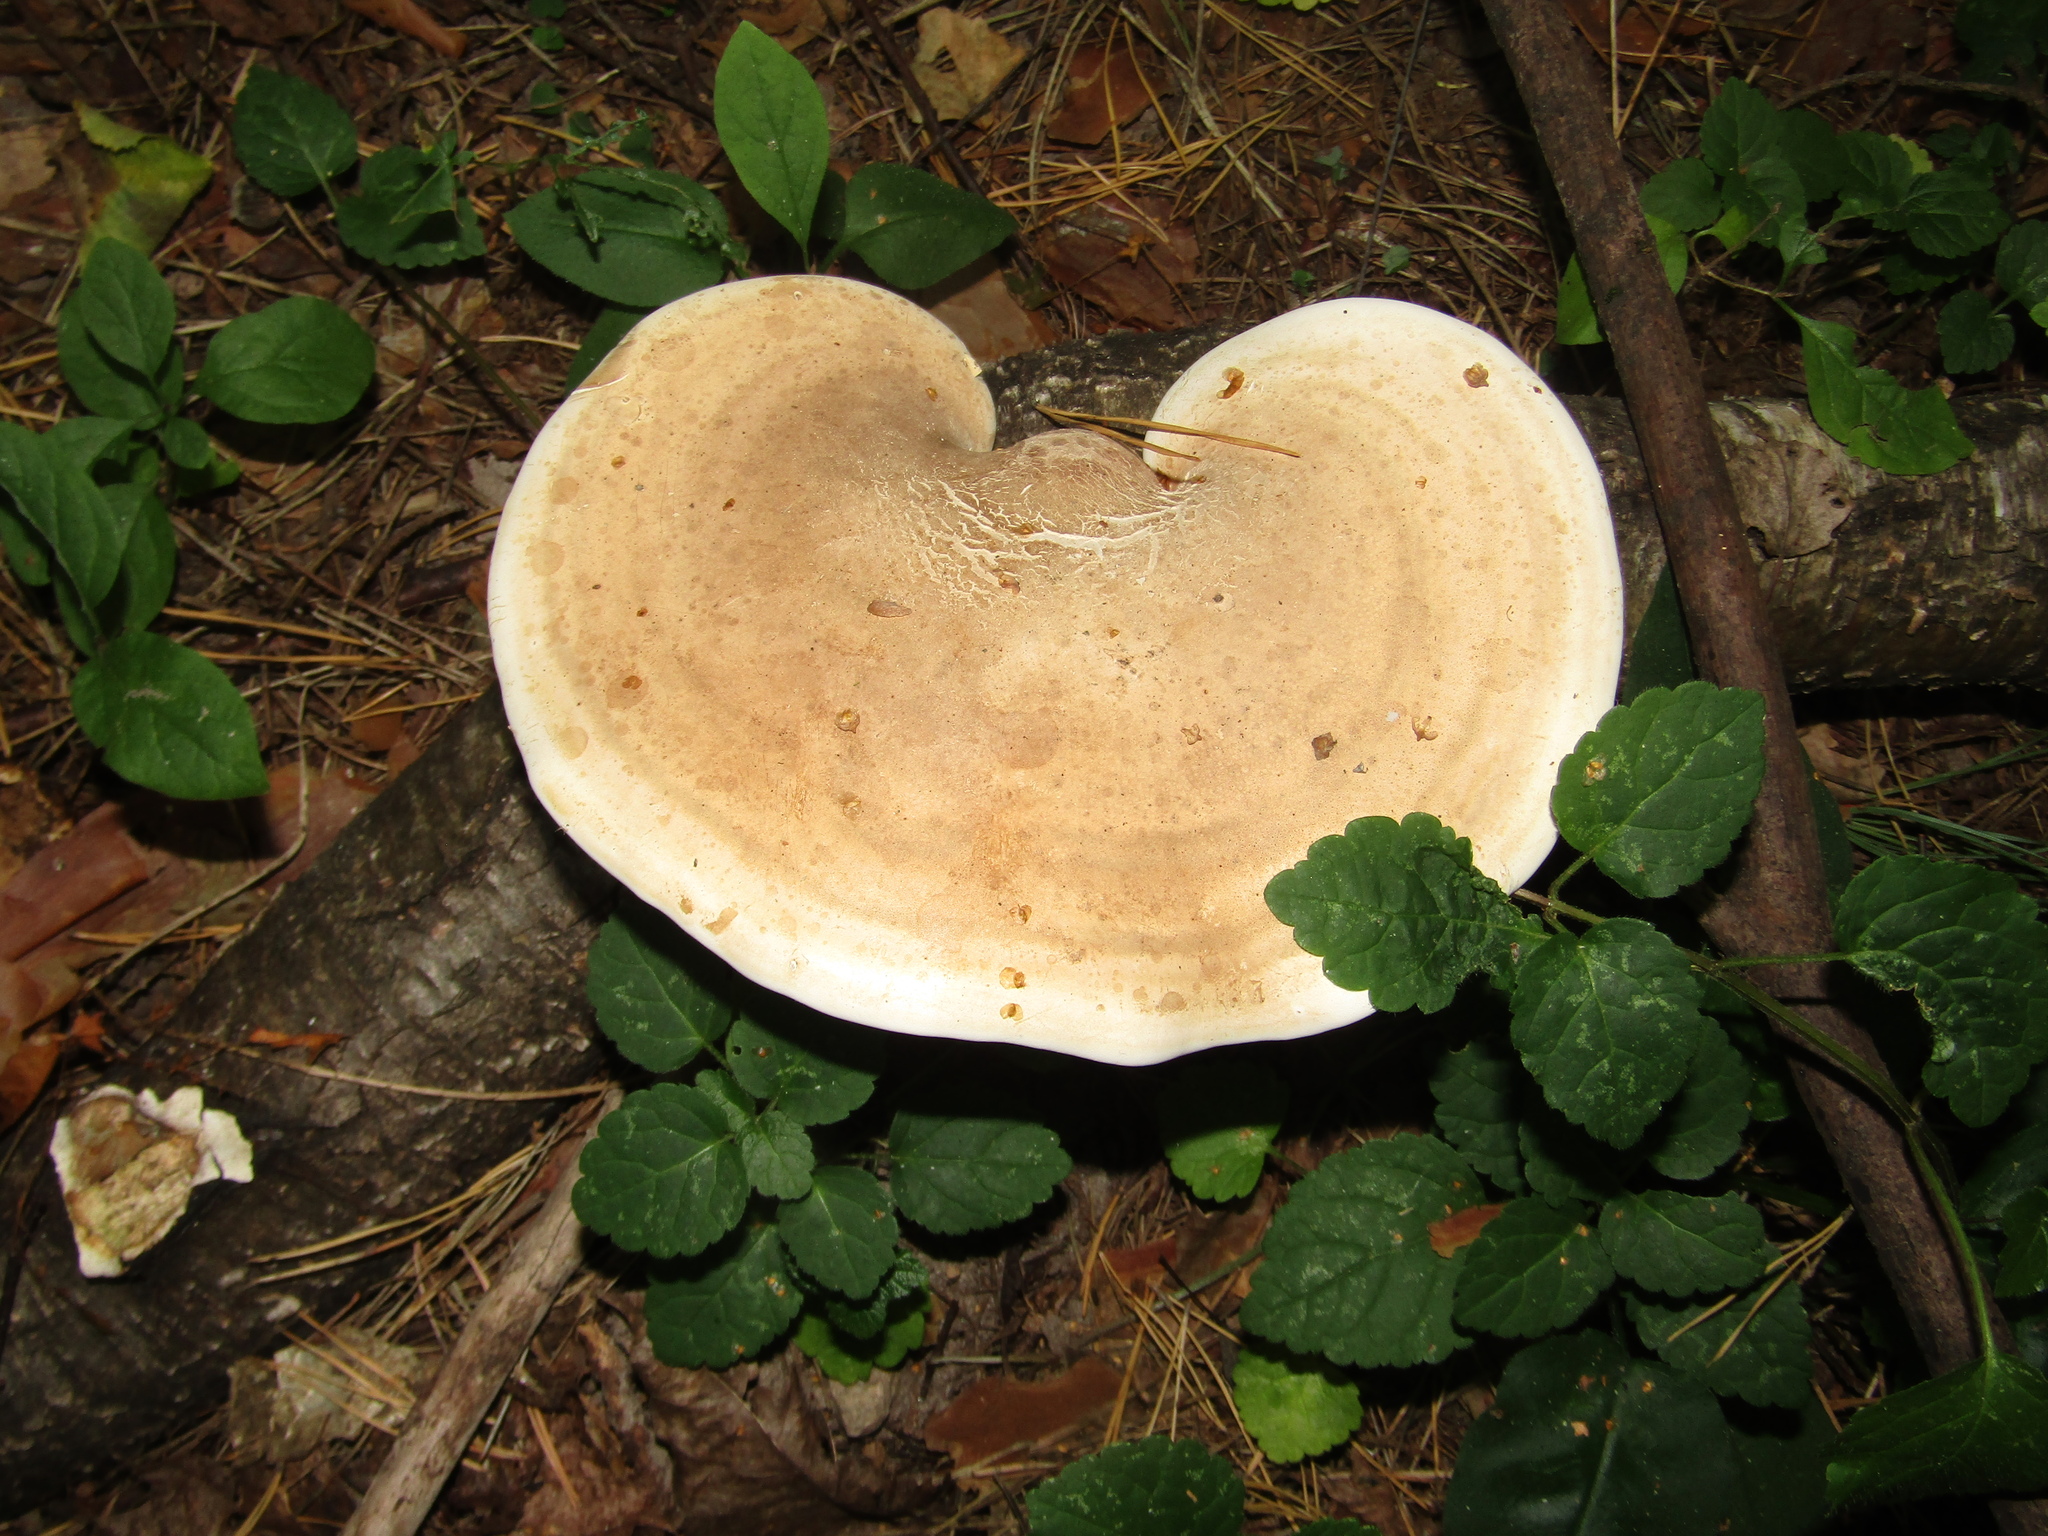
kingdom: Fungi
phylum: Basidiomycota
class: Agaricomycetes
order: Polyporales
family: Fomitopsidaceae
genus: Fomitopsis
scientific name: Fomitopsis betulina
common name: Birch polypore
